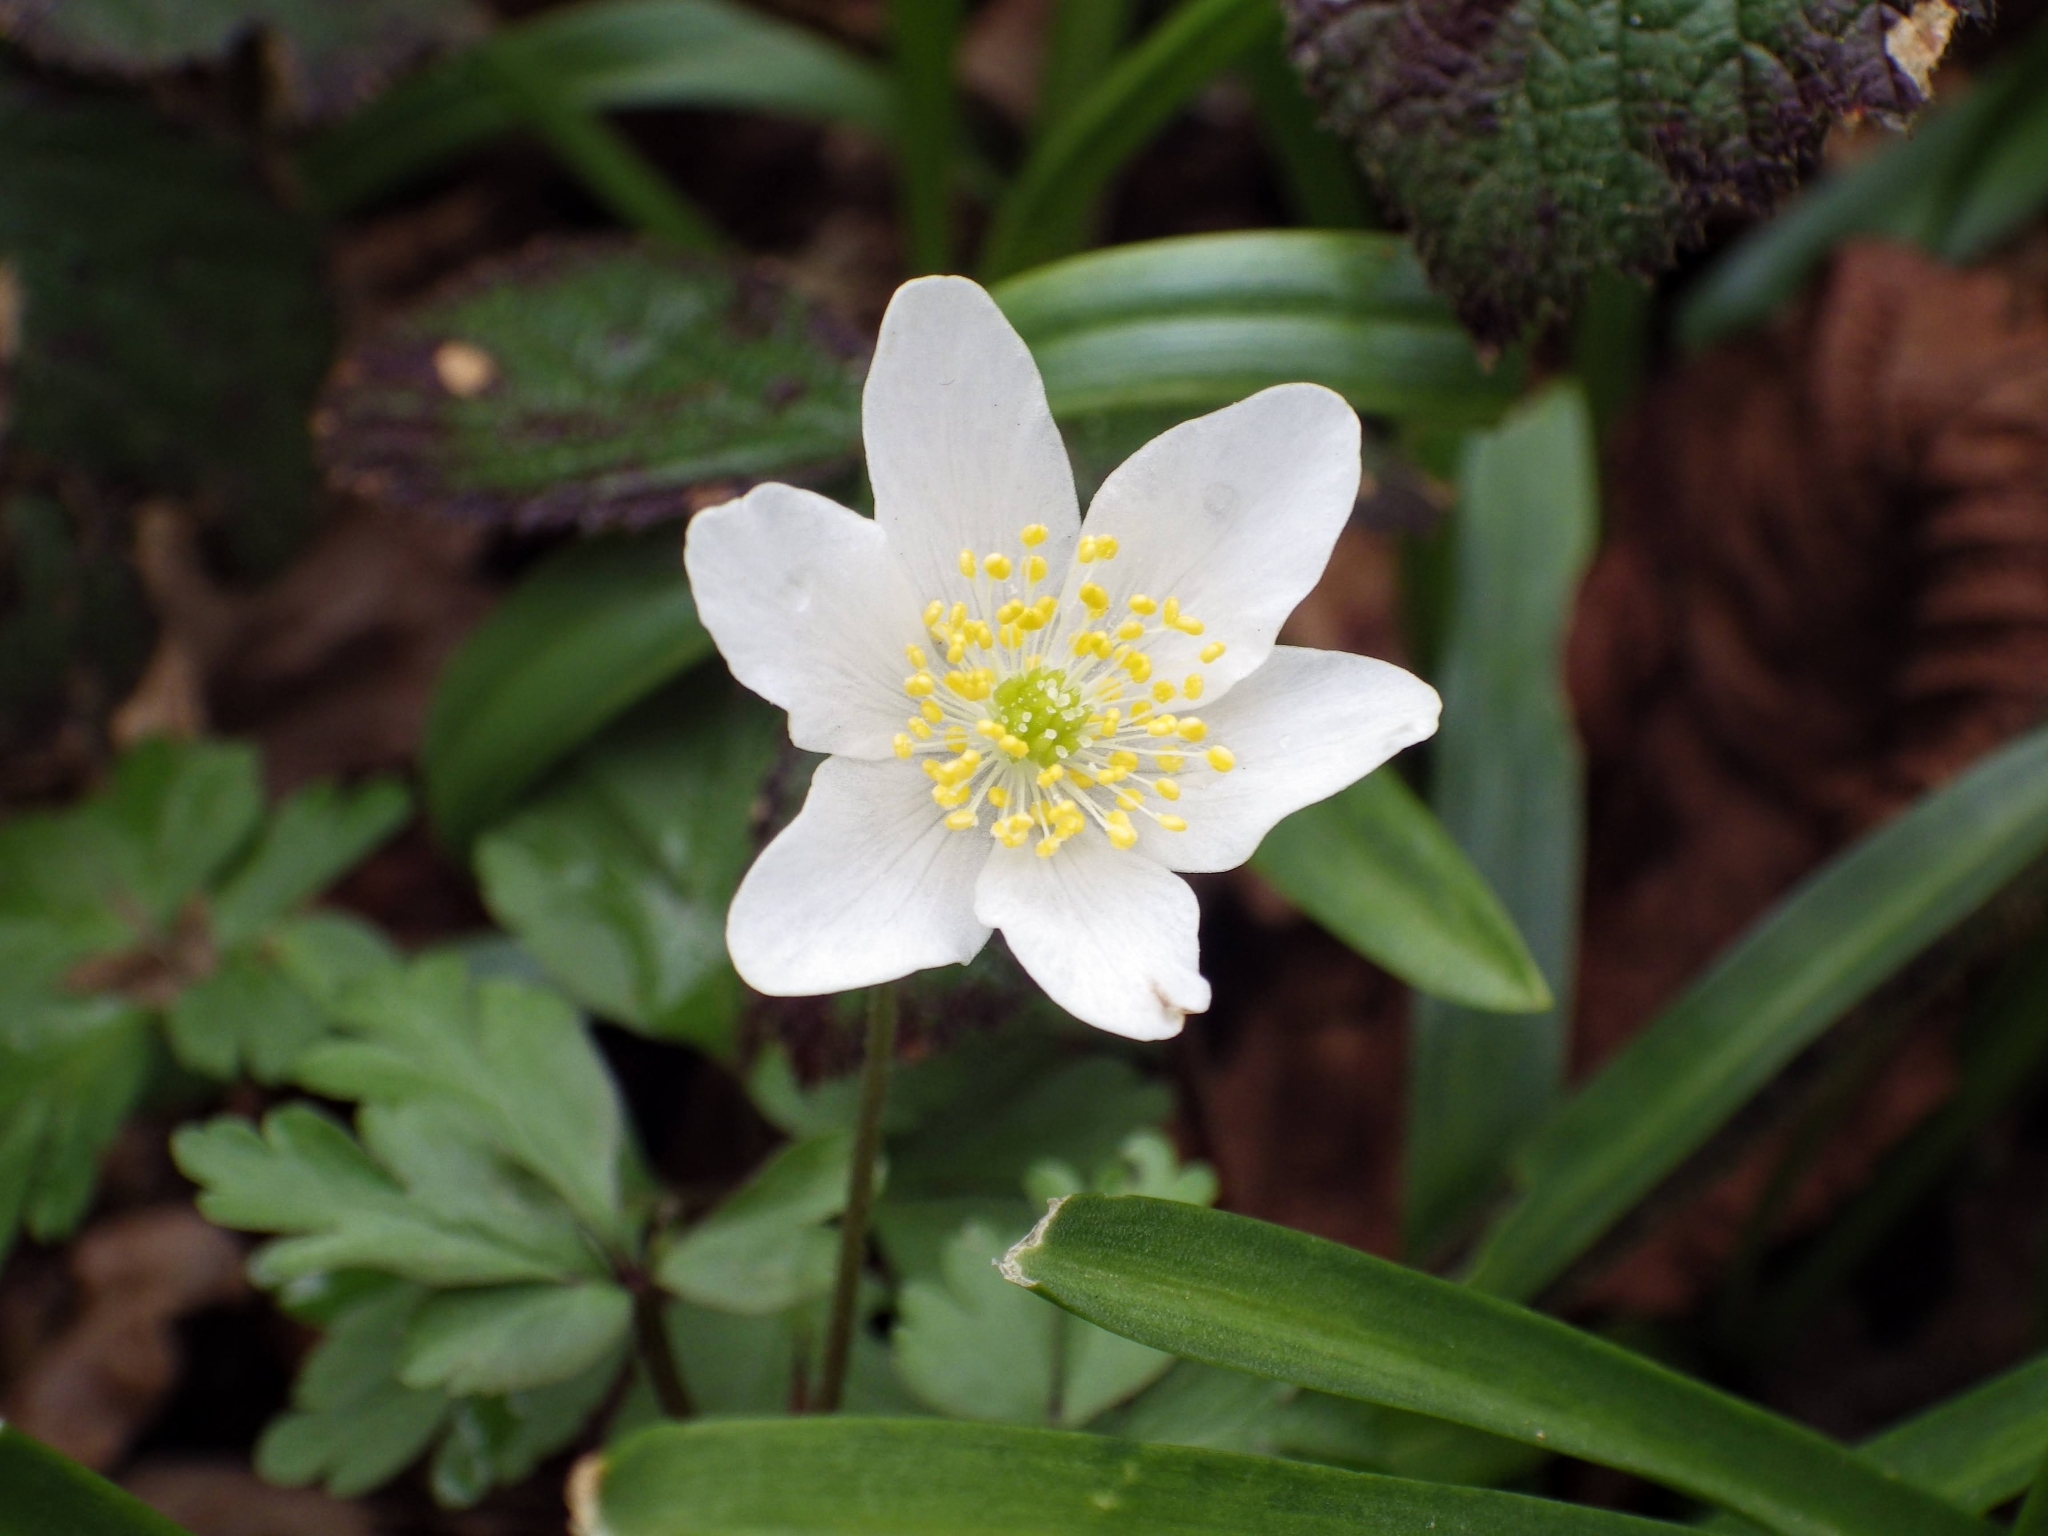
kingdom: Plantae
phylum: Tracheophyta
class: Magnoliopsida
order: Ranunculales
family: Ranunculaceae
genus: Anemone
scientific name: Anemone nemorosa
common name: Wood anemone
